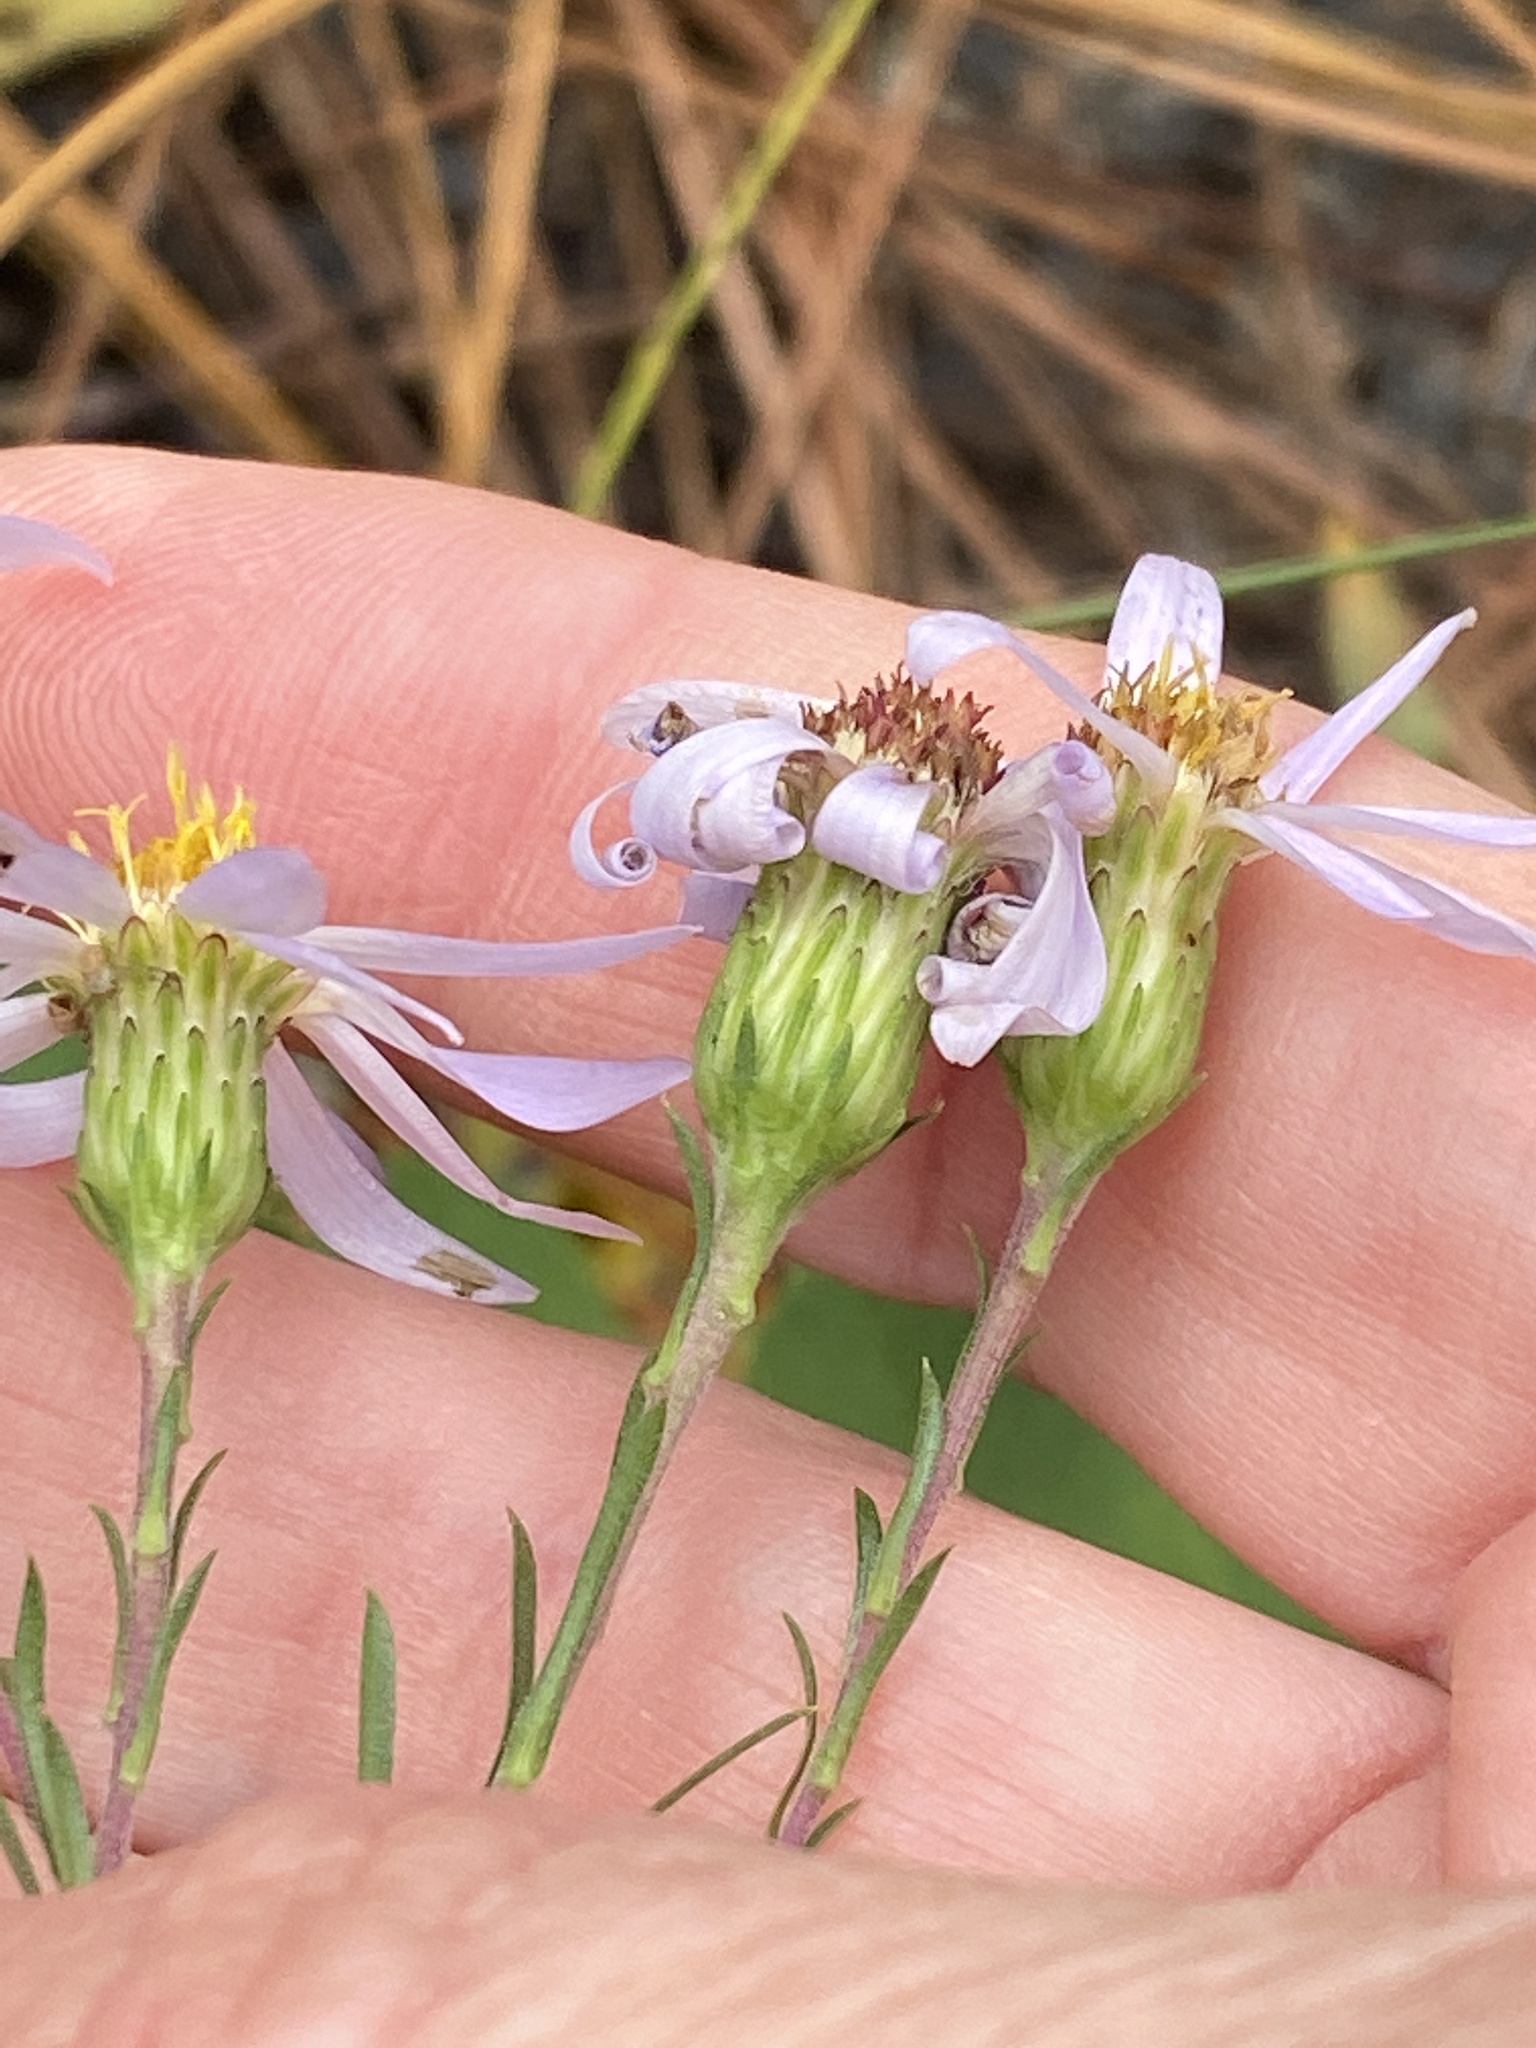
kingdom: Plantae
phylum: Tracheophyta
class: Magnoliopsida
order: Asterales
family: Asteraceae
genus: Ionactis
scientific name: Ionactis linariifolia
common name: Flax-leaf aster
